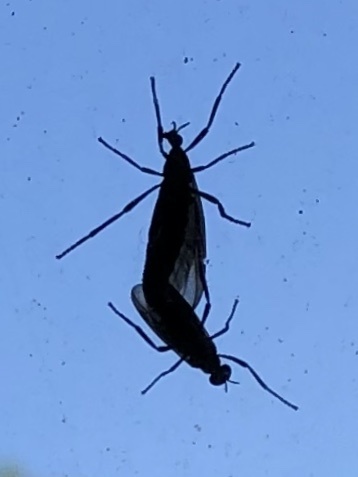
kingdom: Animalia
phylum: Arthropoda
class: Insecta
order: Diptera
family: Bibionidae
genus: Plecia
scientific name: Plecia nearctica
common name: March fly
